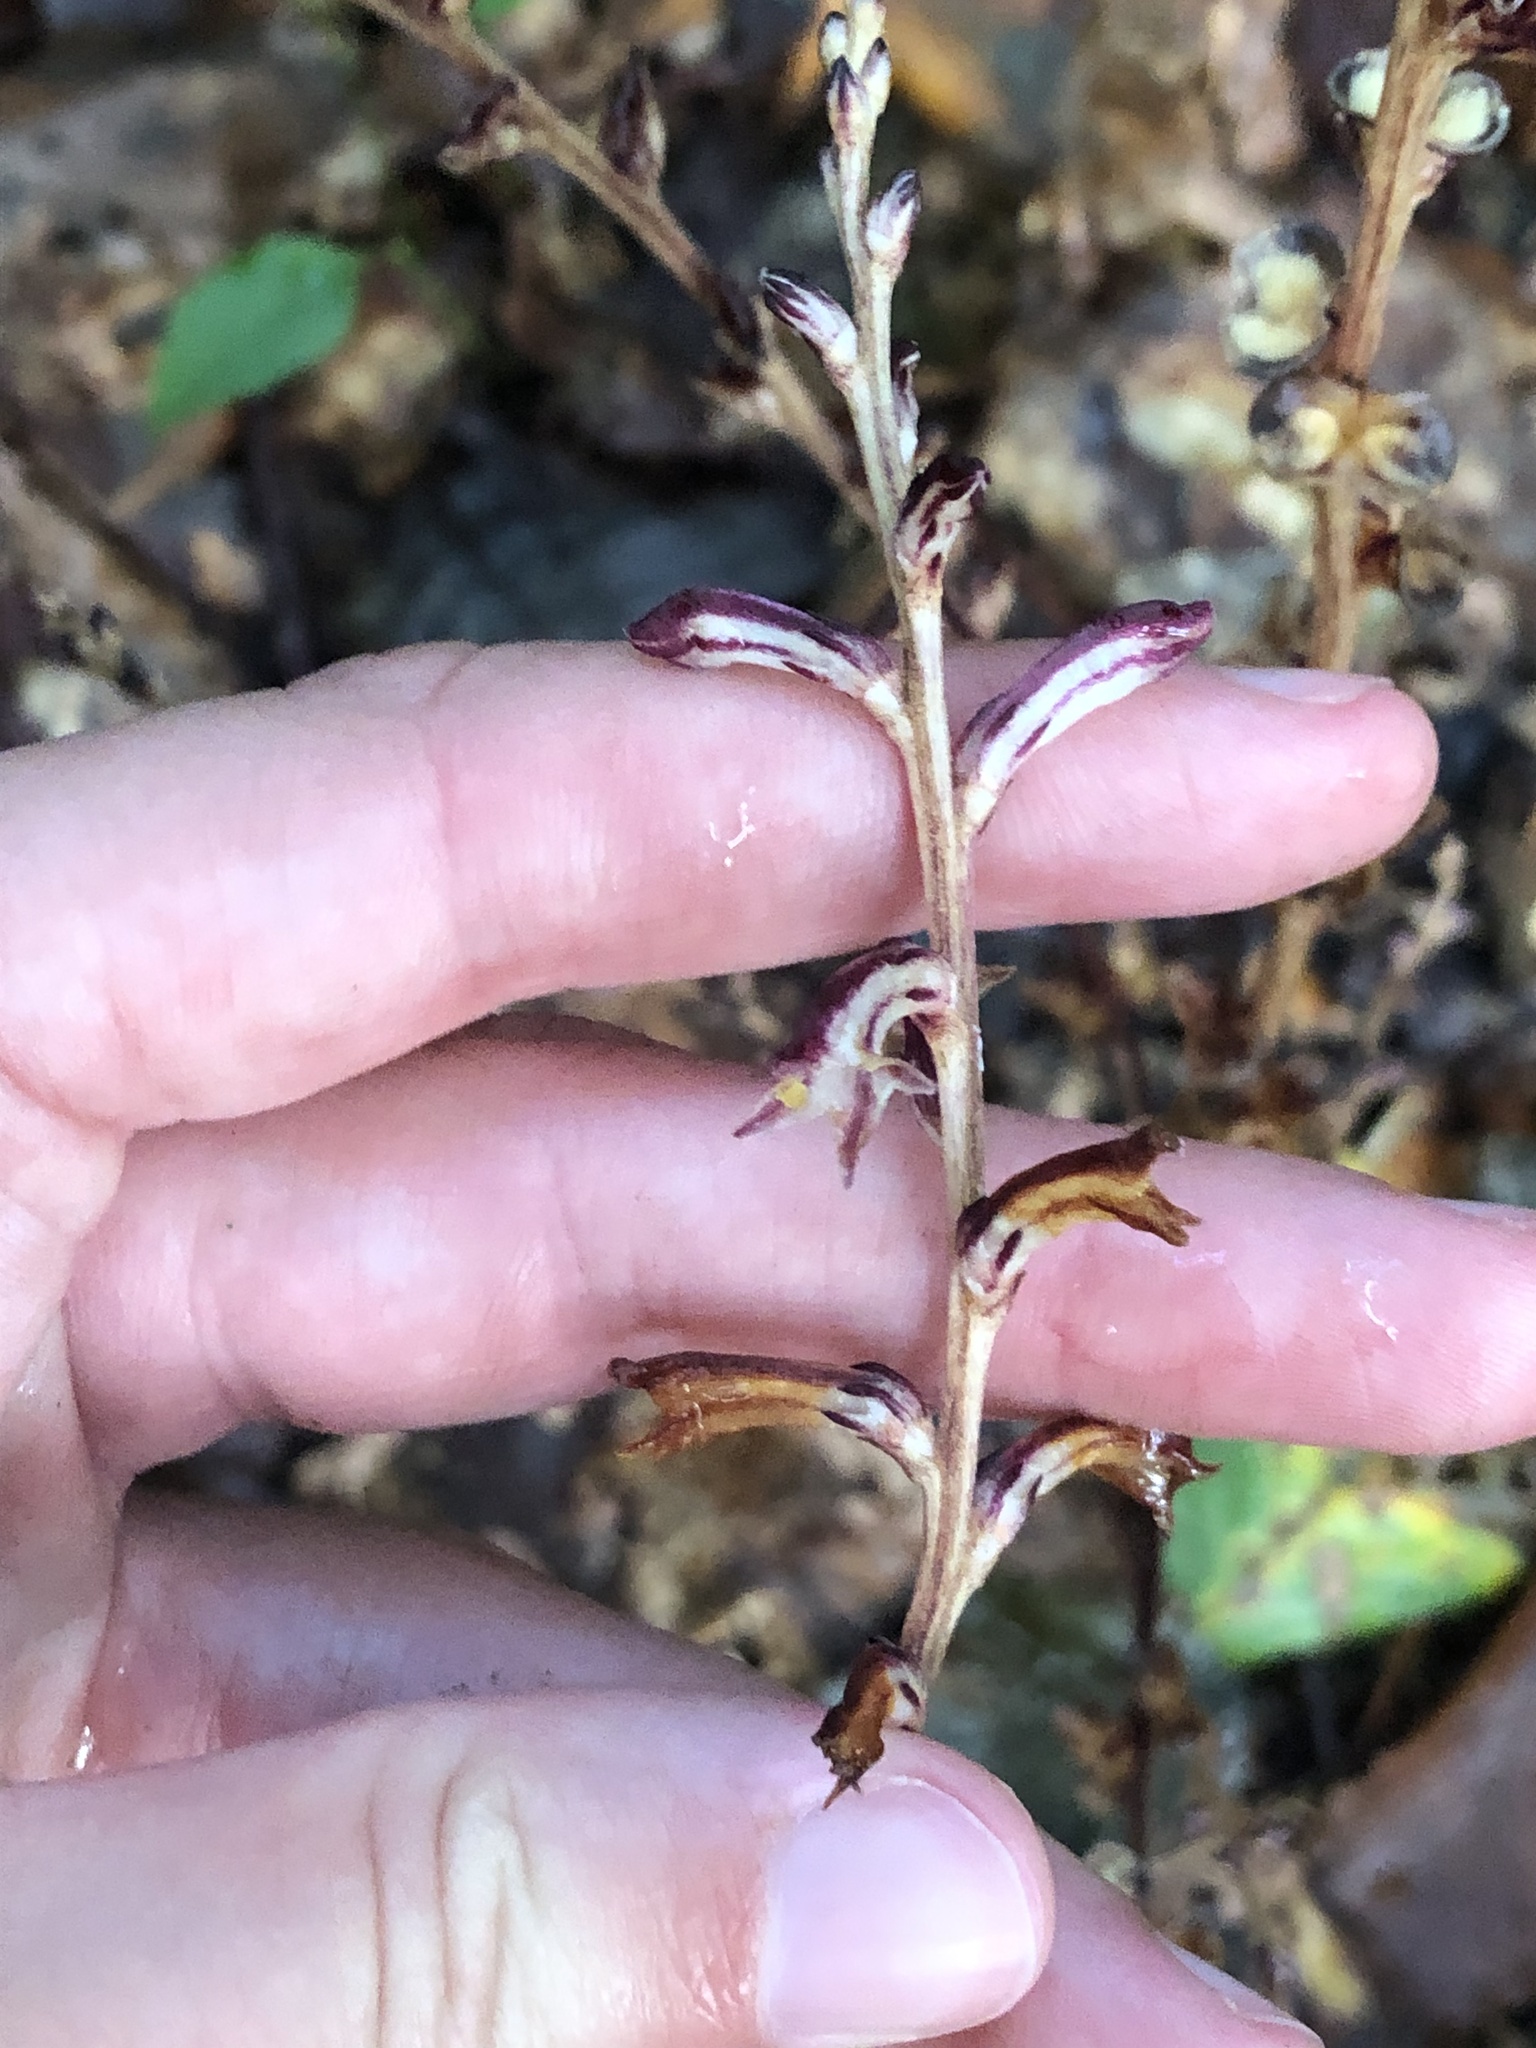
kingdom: Plantae
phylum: Tracheophyta
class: Magnoliopsida
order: Lamiales
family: Orobanchaceae
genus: Epifagus
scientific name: Epifagus virginiana
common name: Beechdrops
